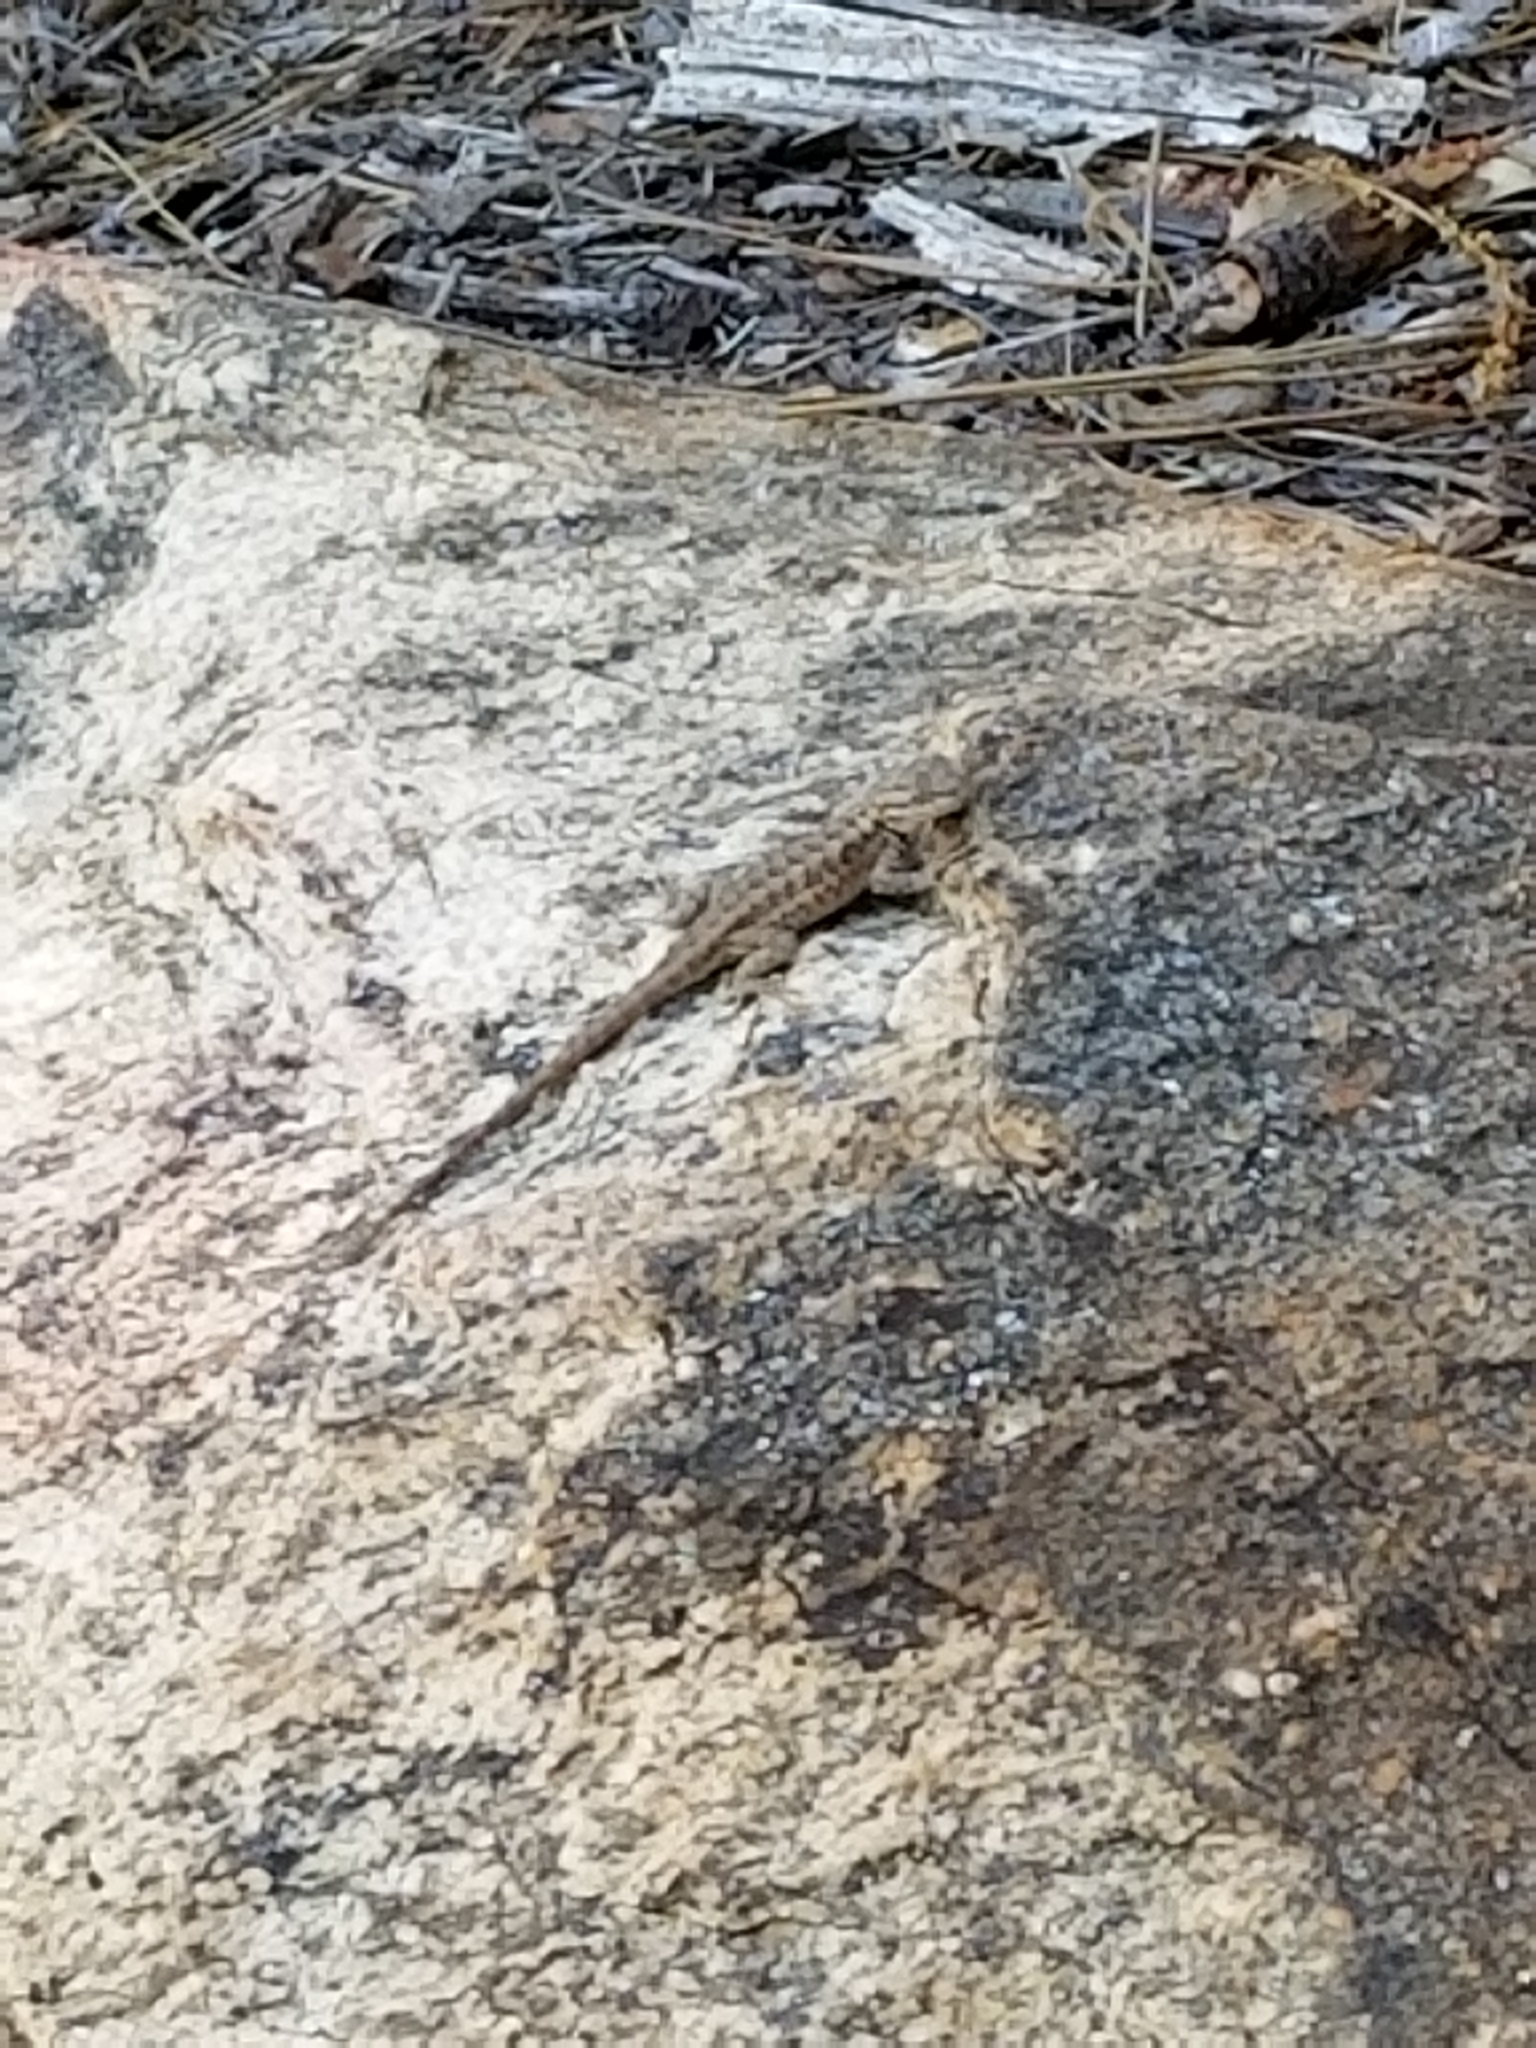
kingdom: Animalia
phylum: Chordata
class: Squamata
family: Phrynosomatidae
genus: Sceloporus
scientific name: Sceloporus graciosus
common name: Sagebrush lizard
